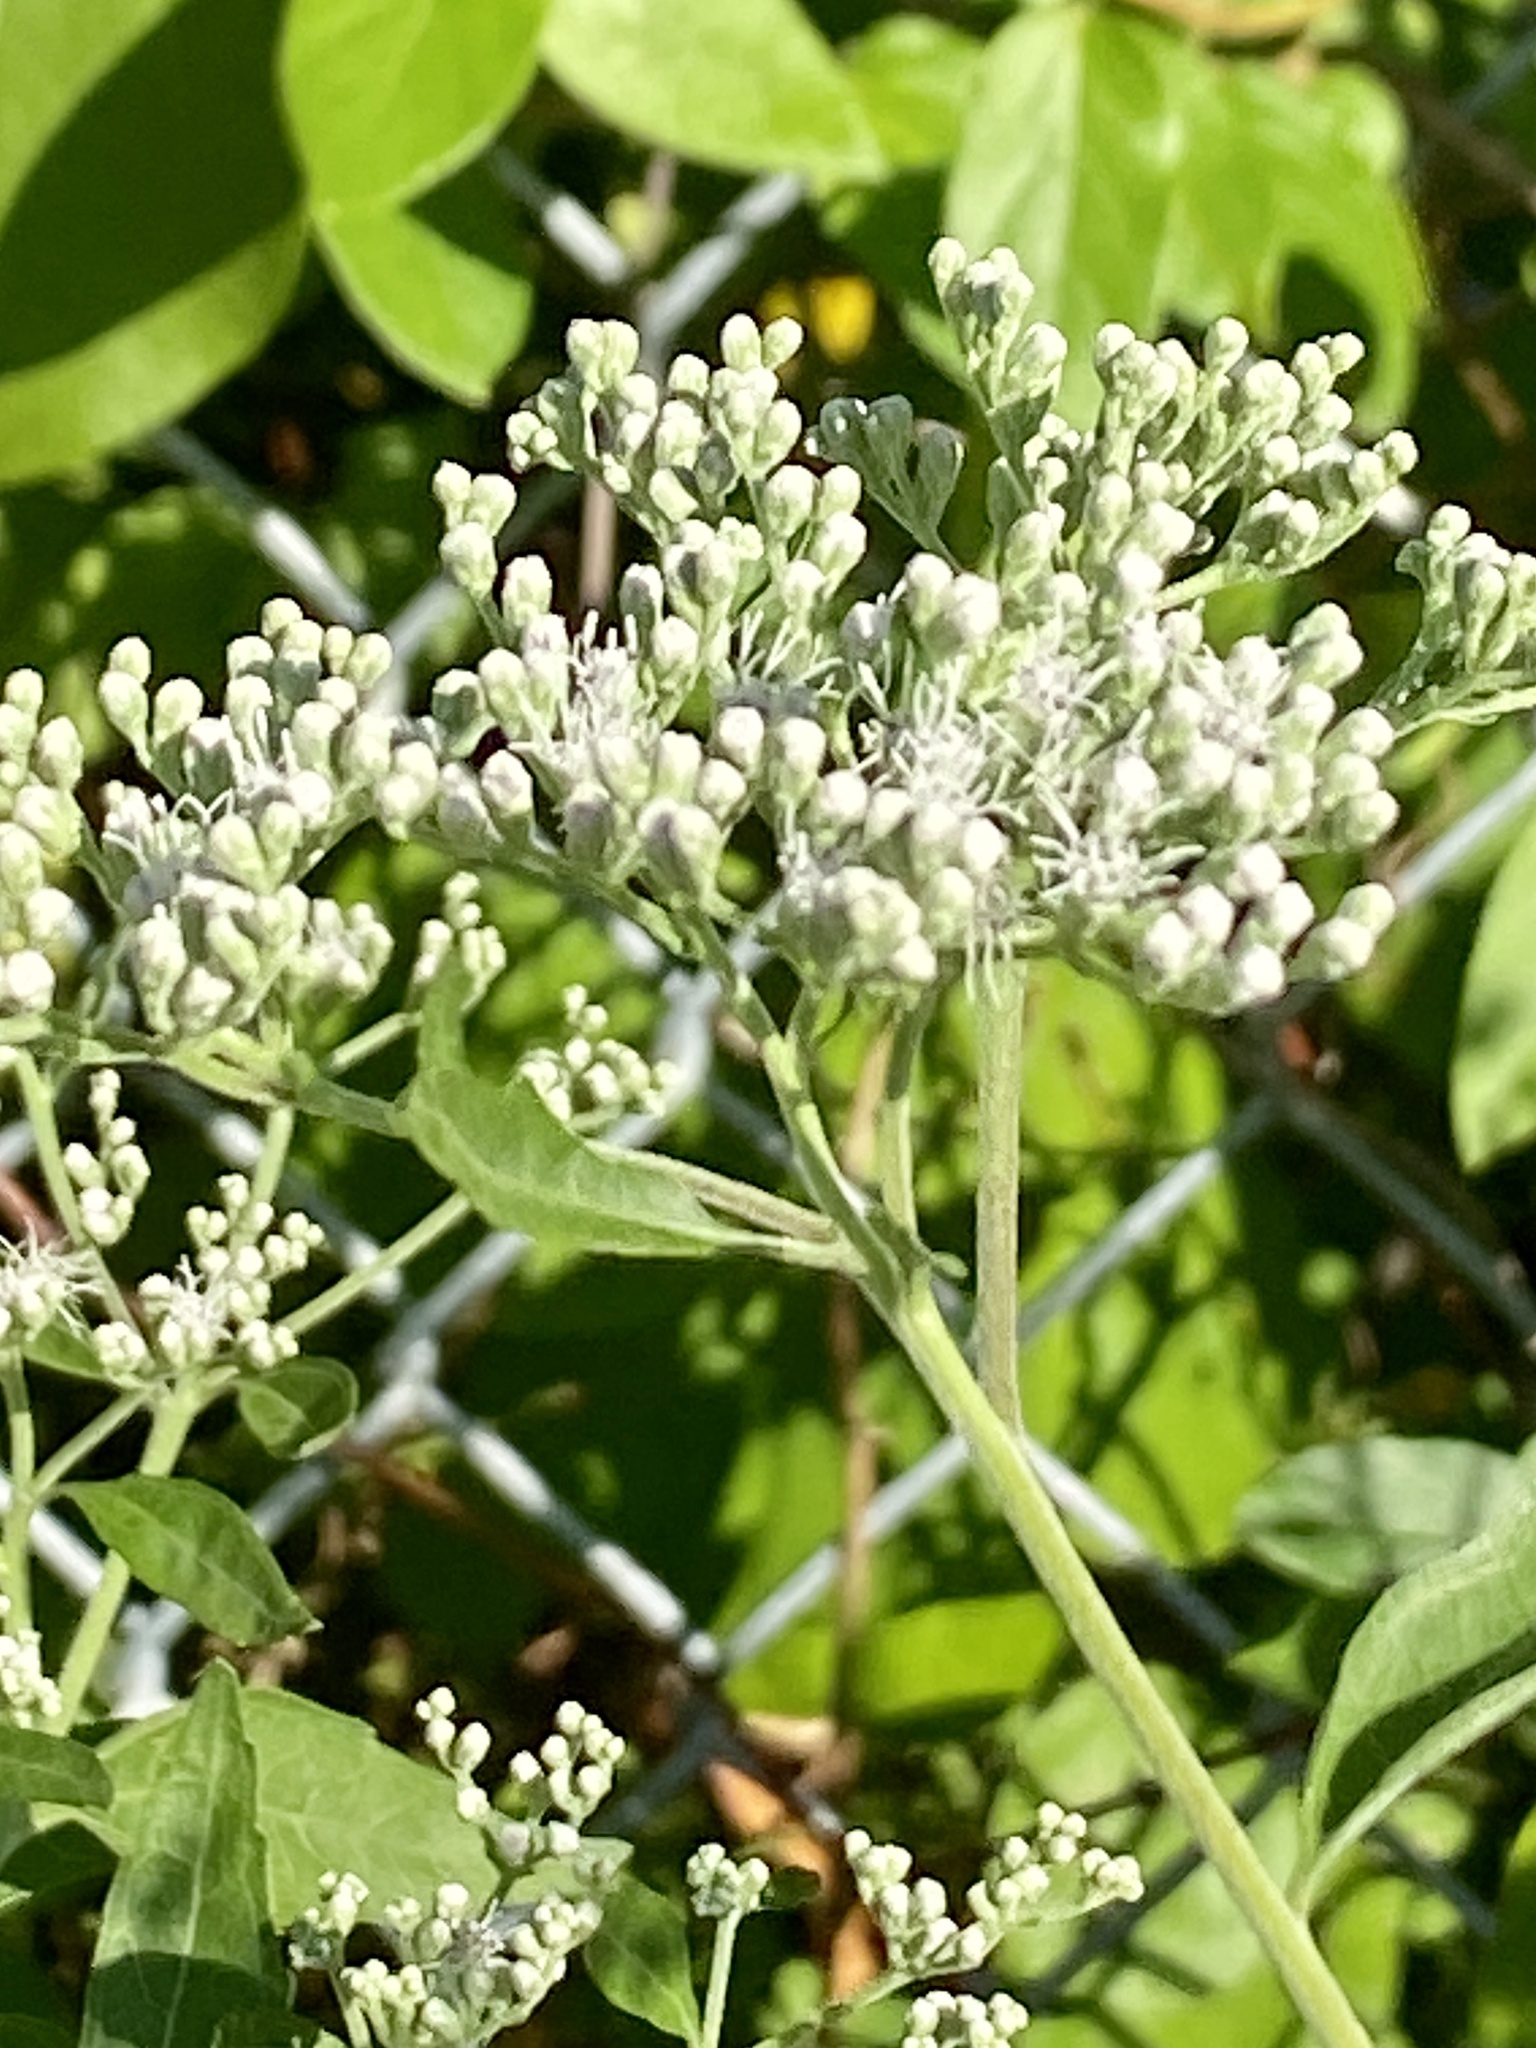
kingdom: Plantae
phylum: Tracheophyta
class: Magnoliopsida
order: Asterales
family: Asteraceae
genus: Eupatorium
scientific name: Eupatorium serotinum
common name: Late boneset
